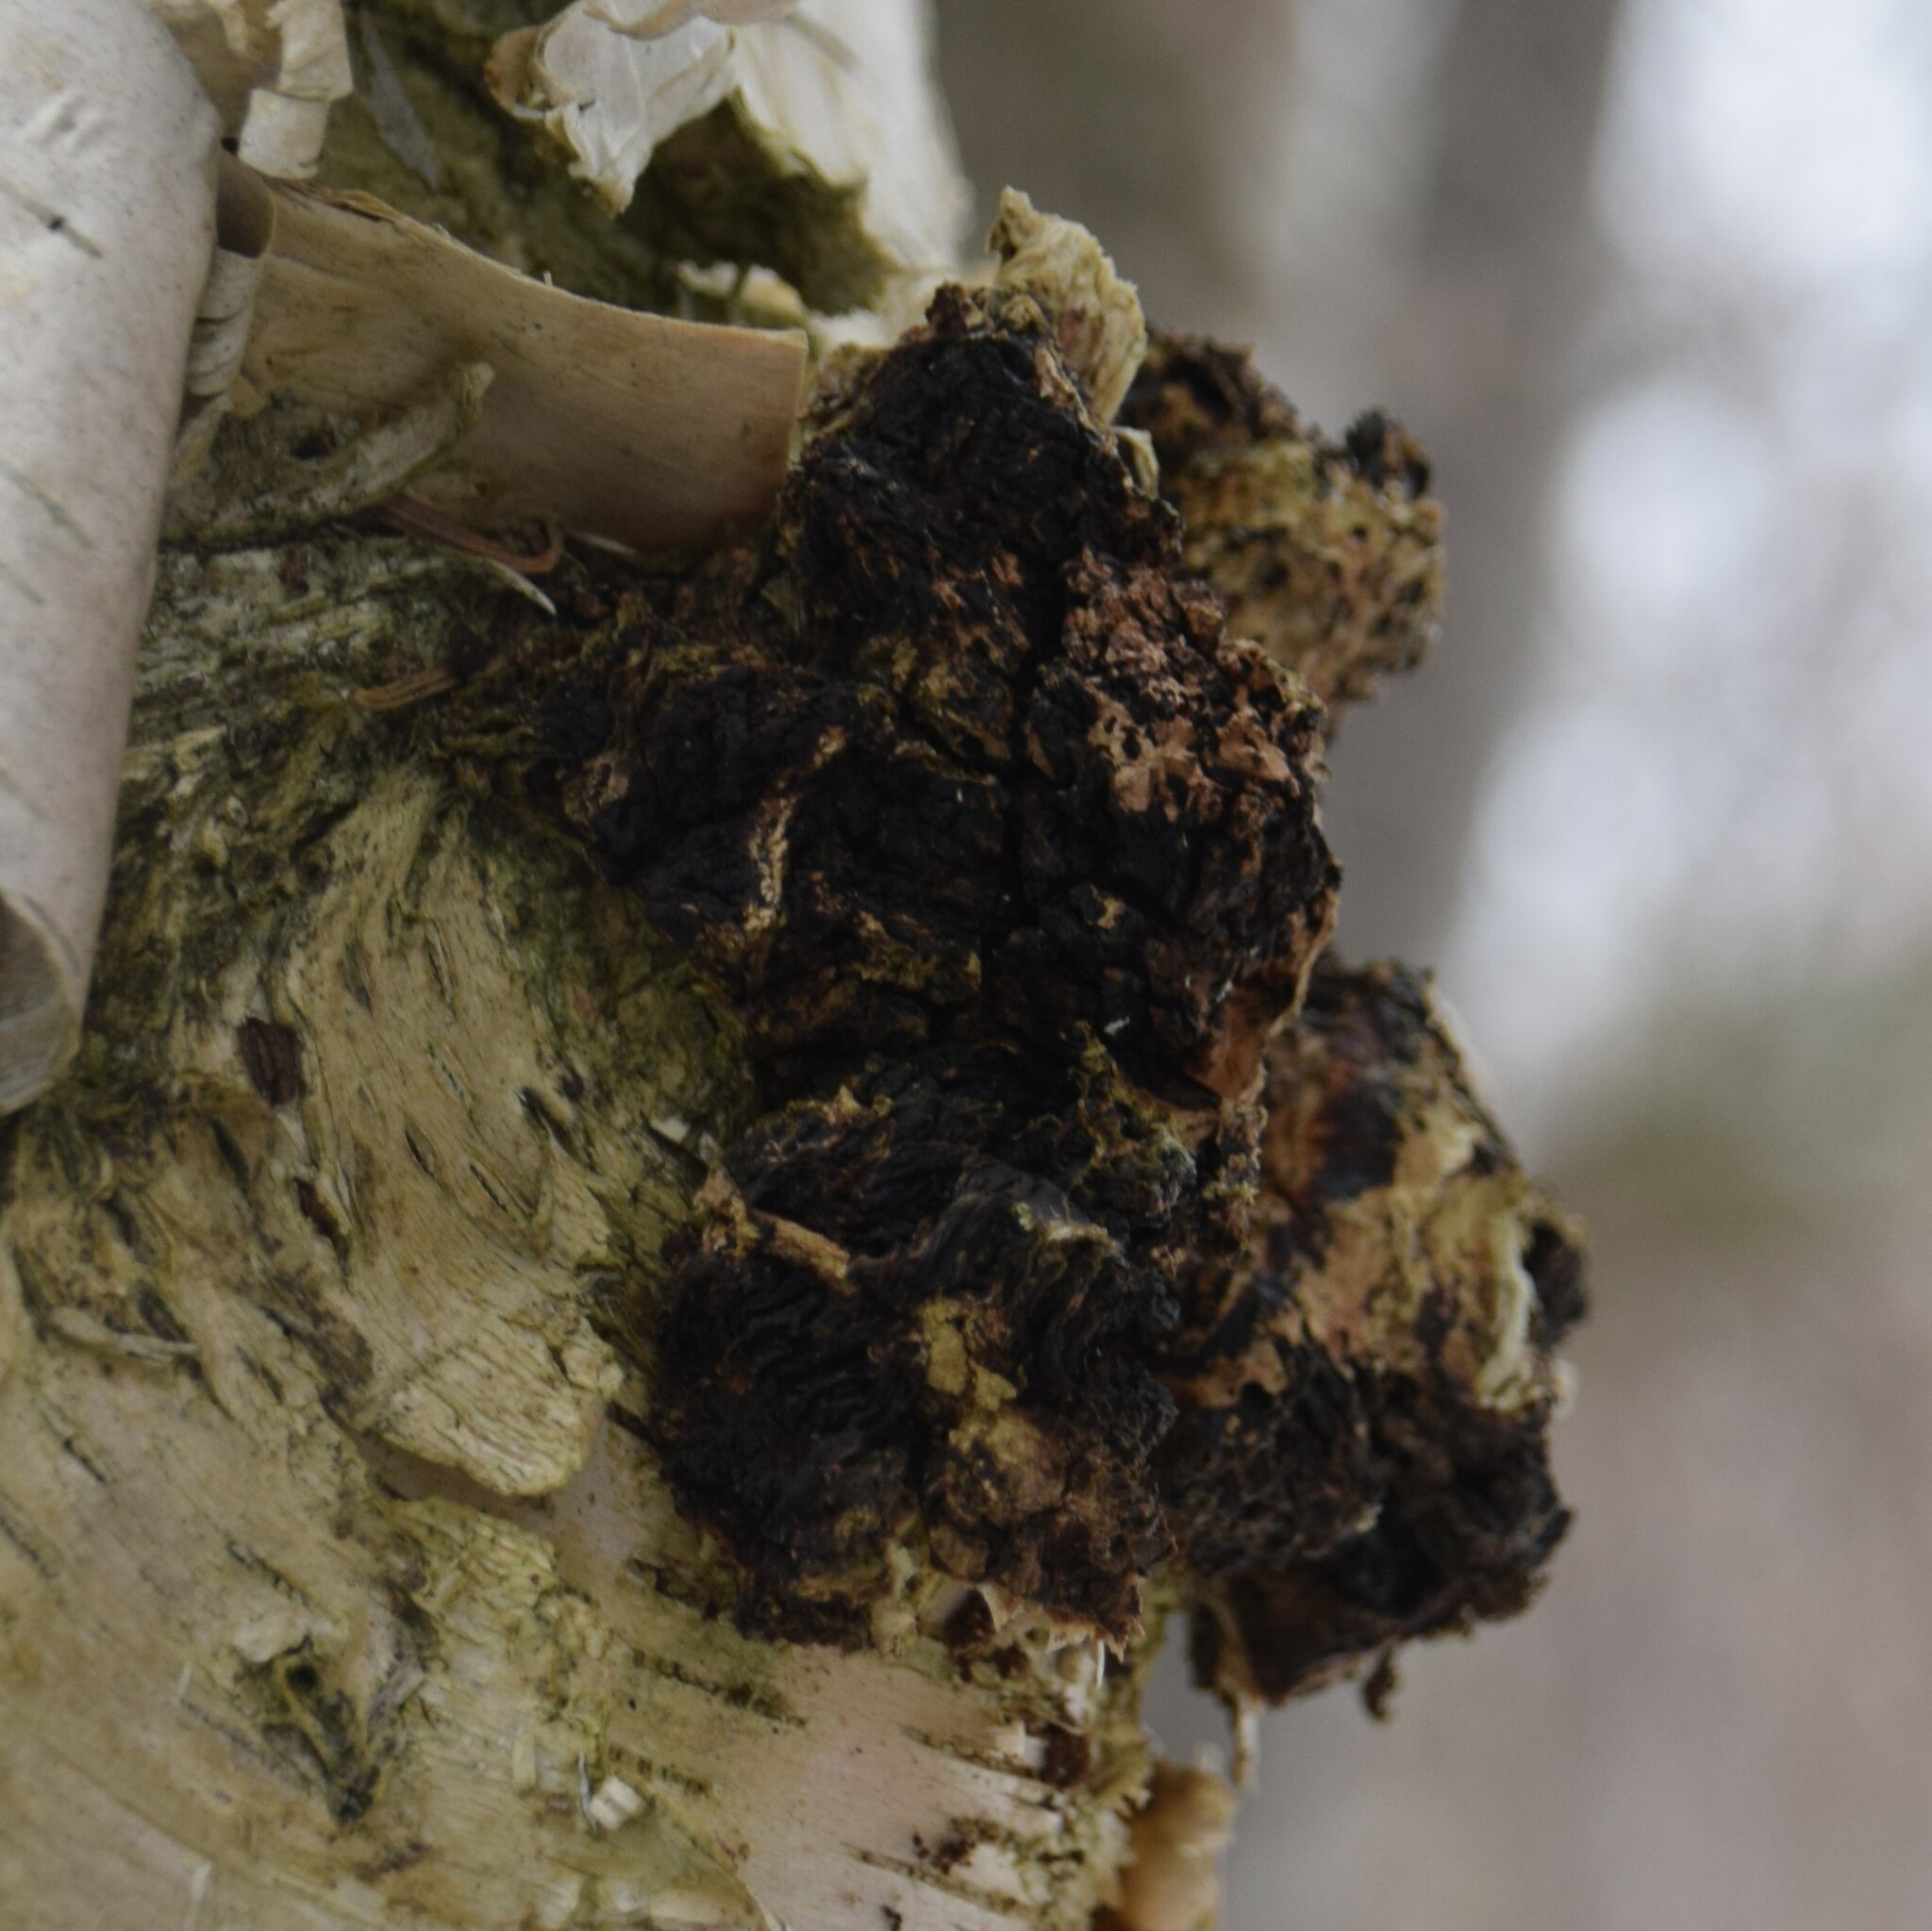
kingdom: Fungi
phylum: Basidiomycota
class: Agaricomycetes
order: Hymenochaetales
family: Hymenochaetaceae
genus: Inonotus
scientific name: Inonotus obliquus
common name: Chaga
